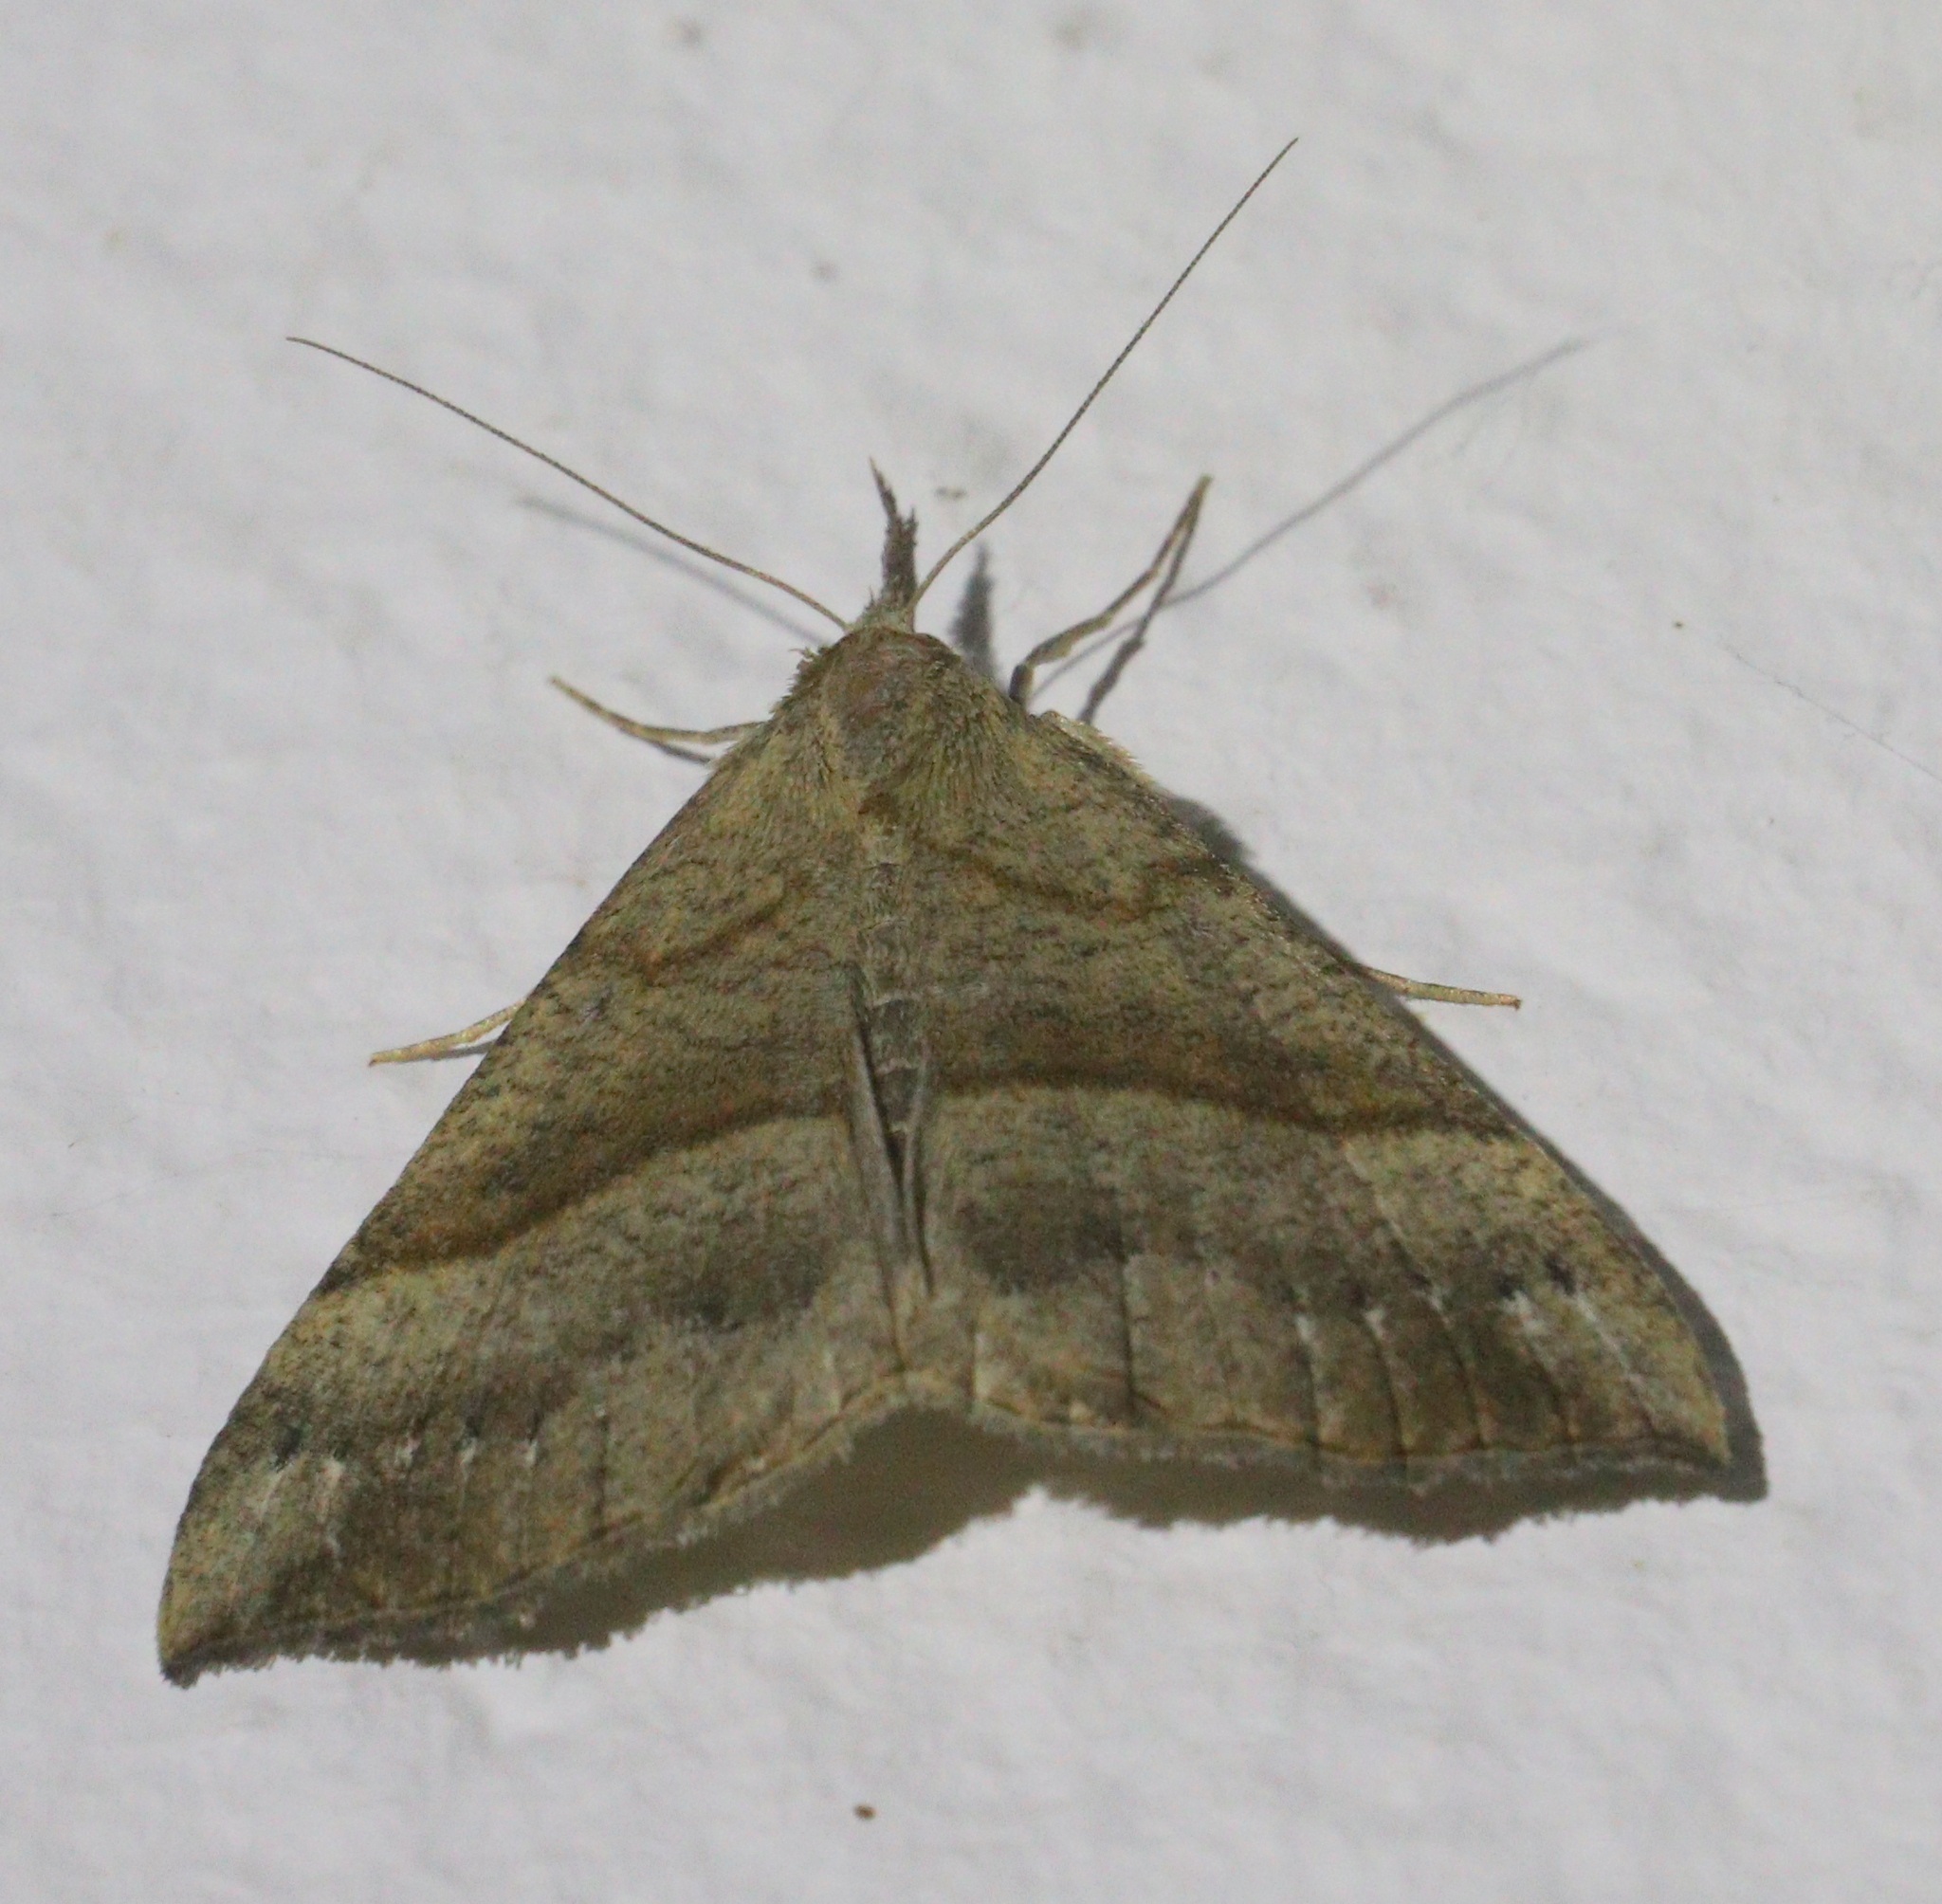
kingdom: Animalia
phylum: Arthropoda
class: Insecta
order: Lepidoptera
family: Erebidae
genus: Hypena
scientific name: Hypena proboscidalis
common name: Snout
